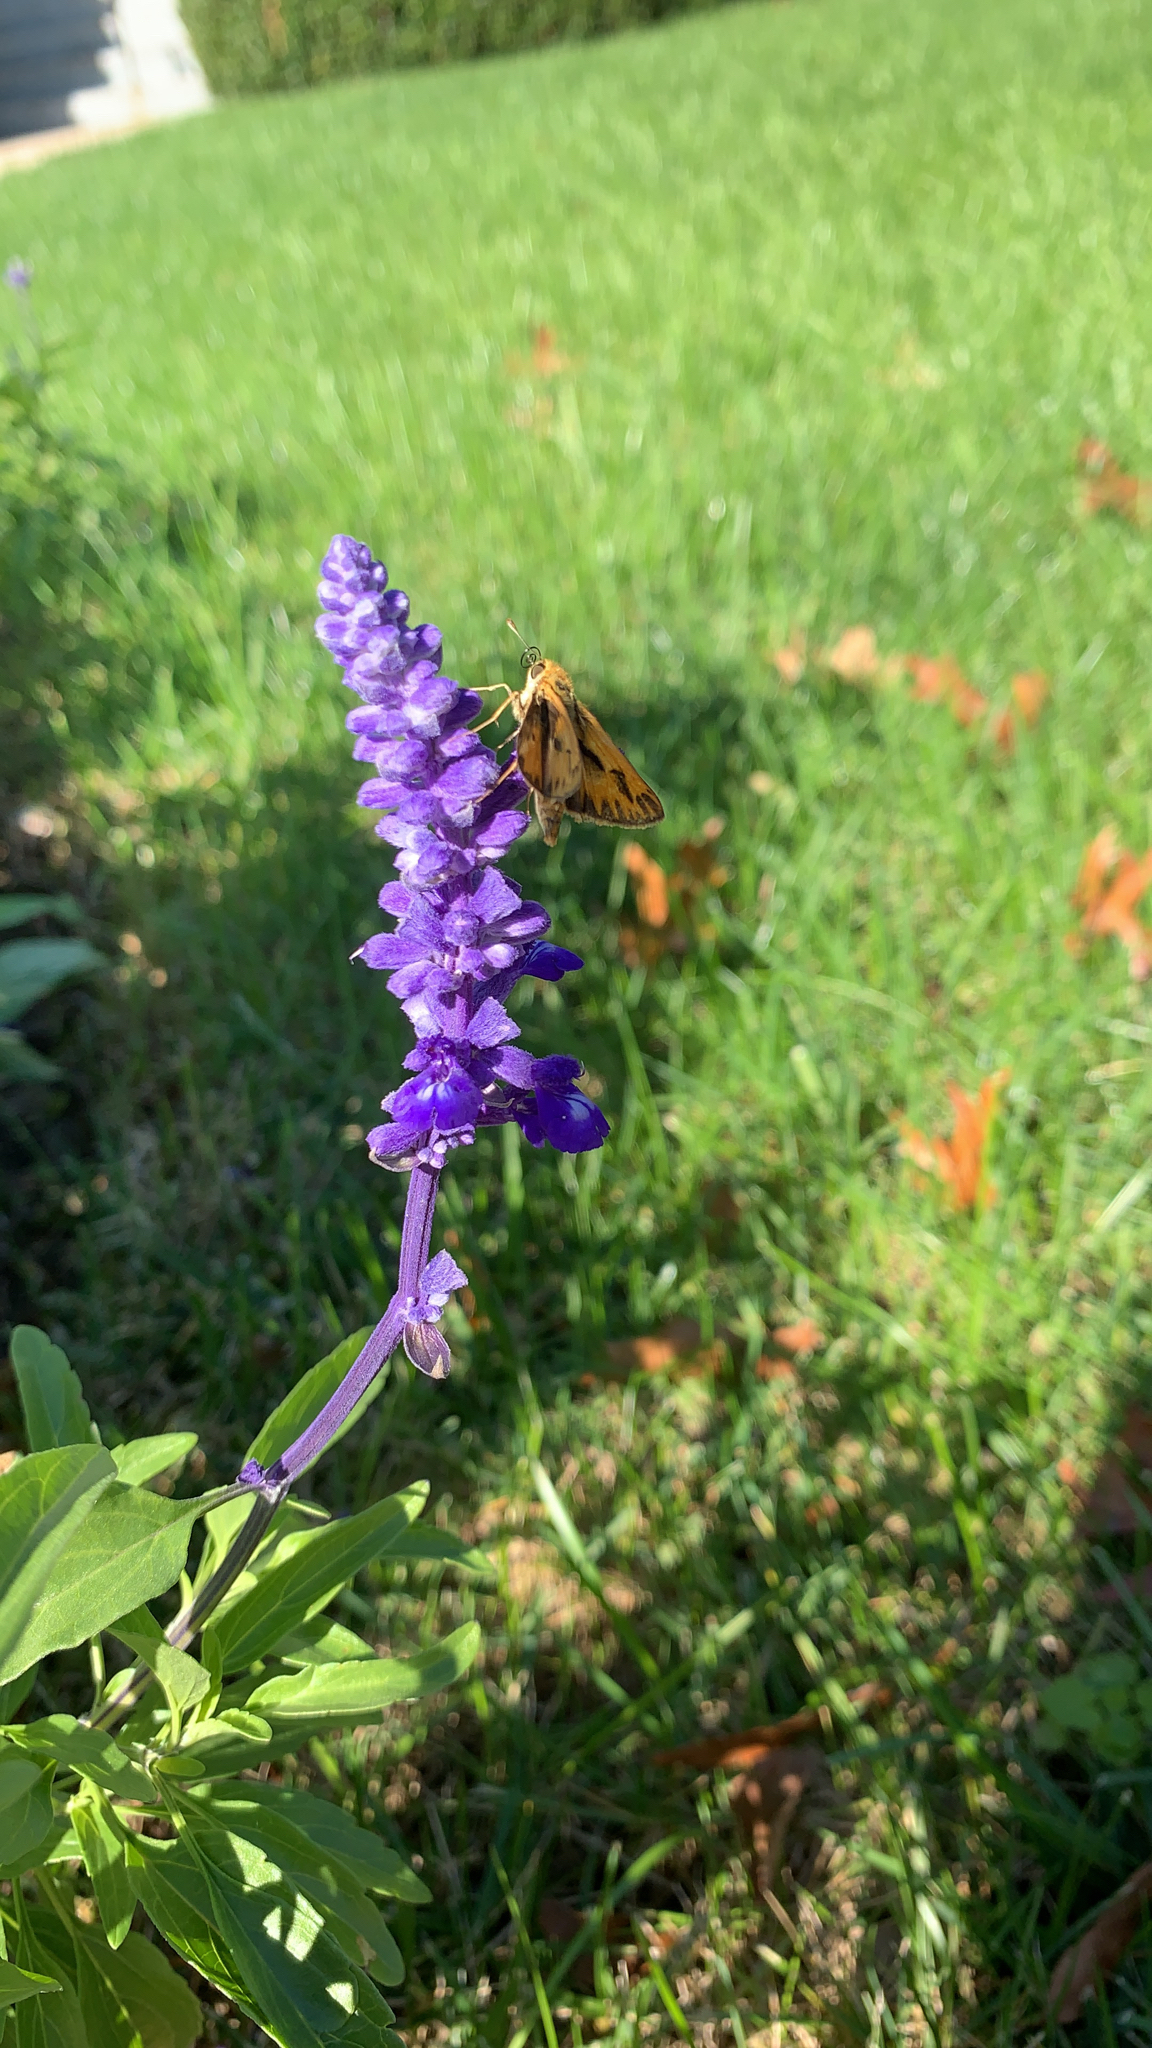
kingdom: Animalia
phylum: Arthropoda
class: Insecta
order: Lepidoptera
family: Hesperiidae
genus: Hylephila
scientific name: Hylephila phyleus
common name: Fiery skipper
